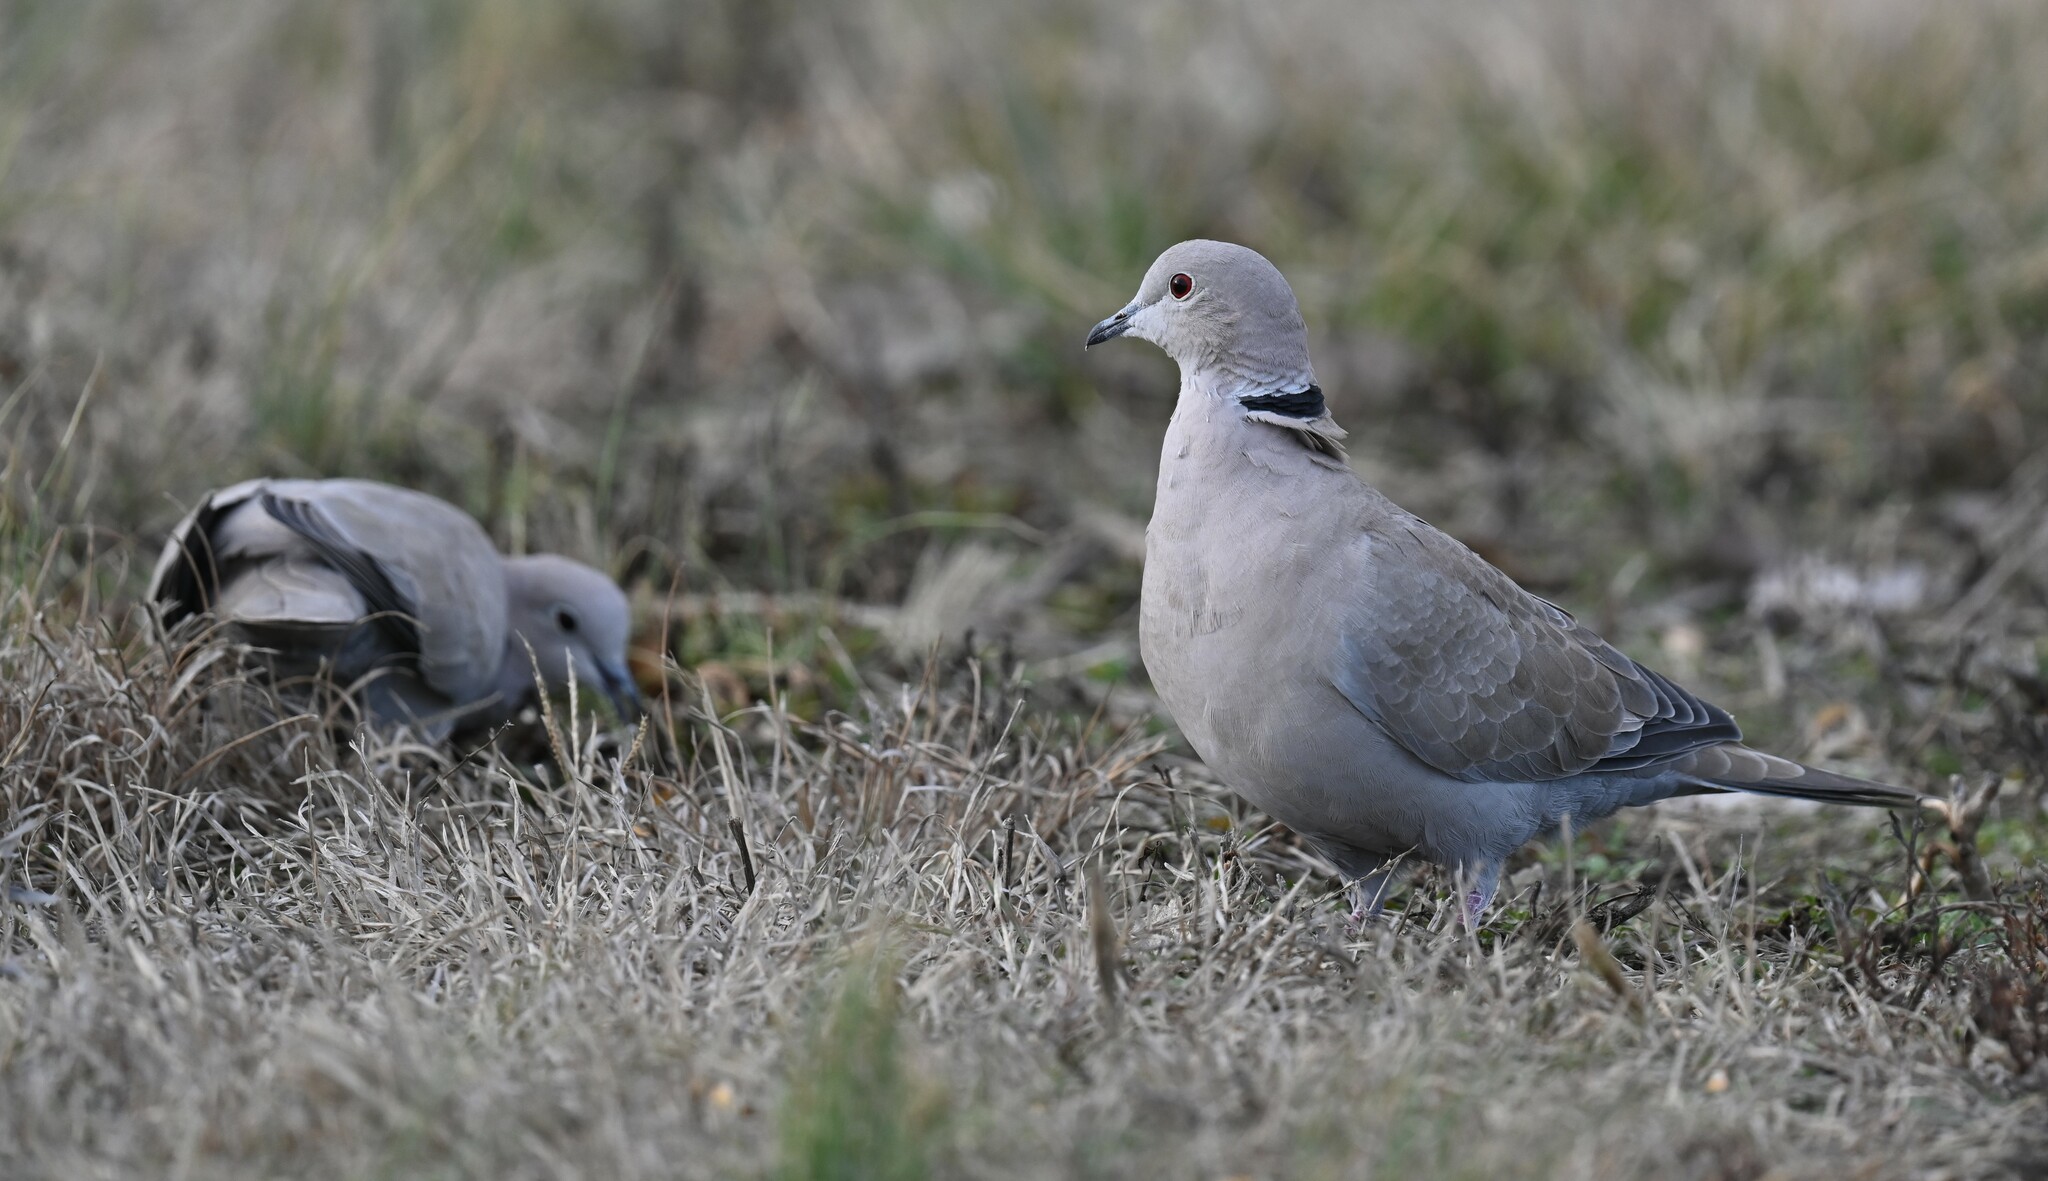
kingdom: Animalia
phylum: Chordata
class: Aves
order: Columbiformes
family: Columbidae
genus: Streptopelia
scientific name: Streptopelia decaocto
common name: Eurasian collared dove
